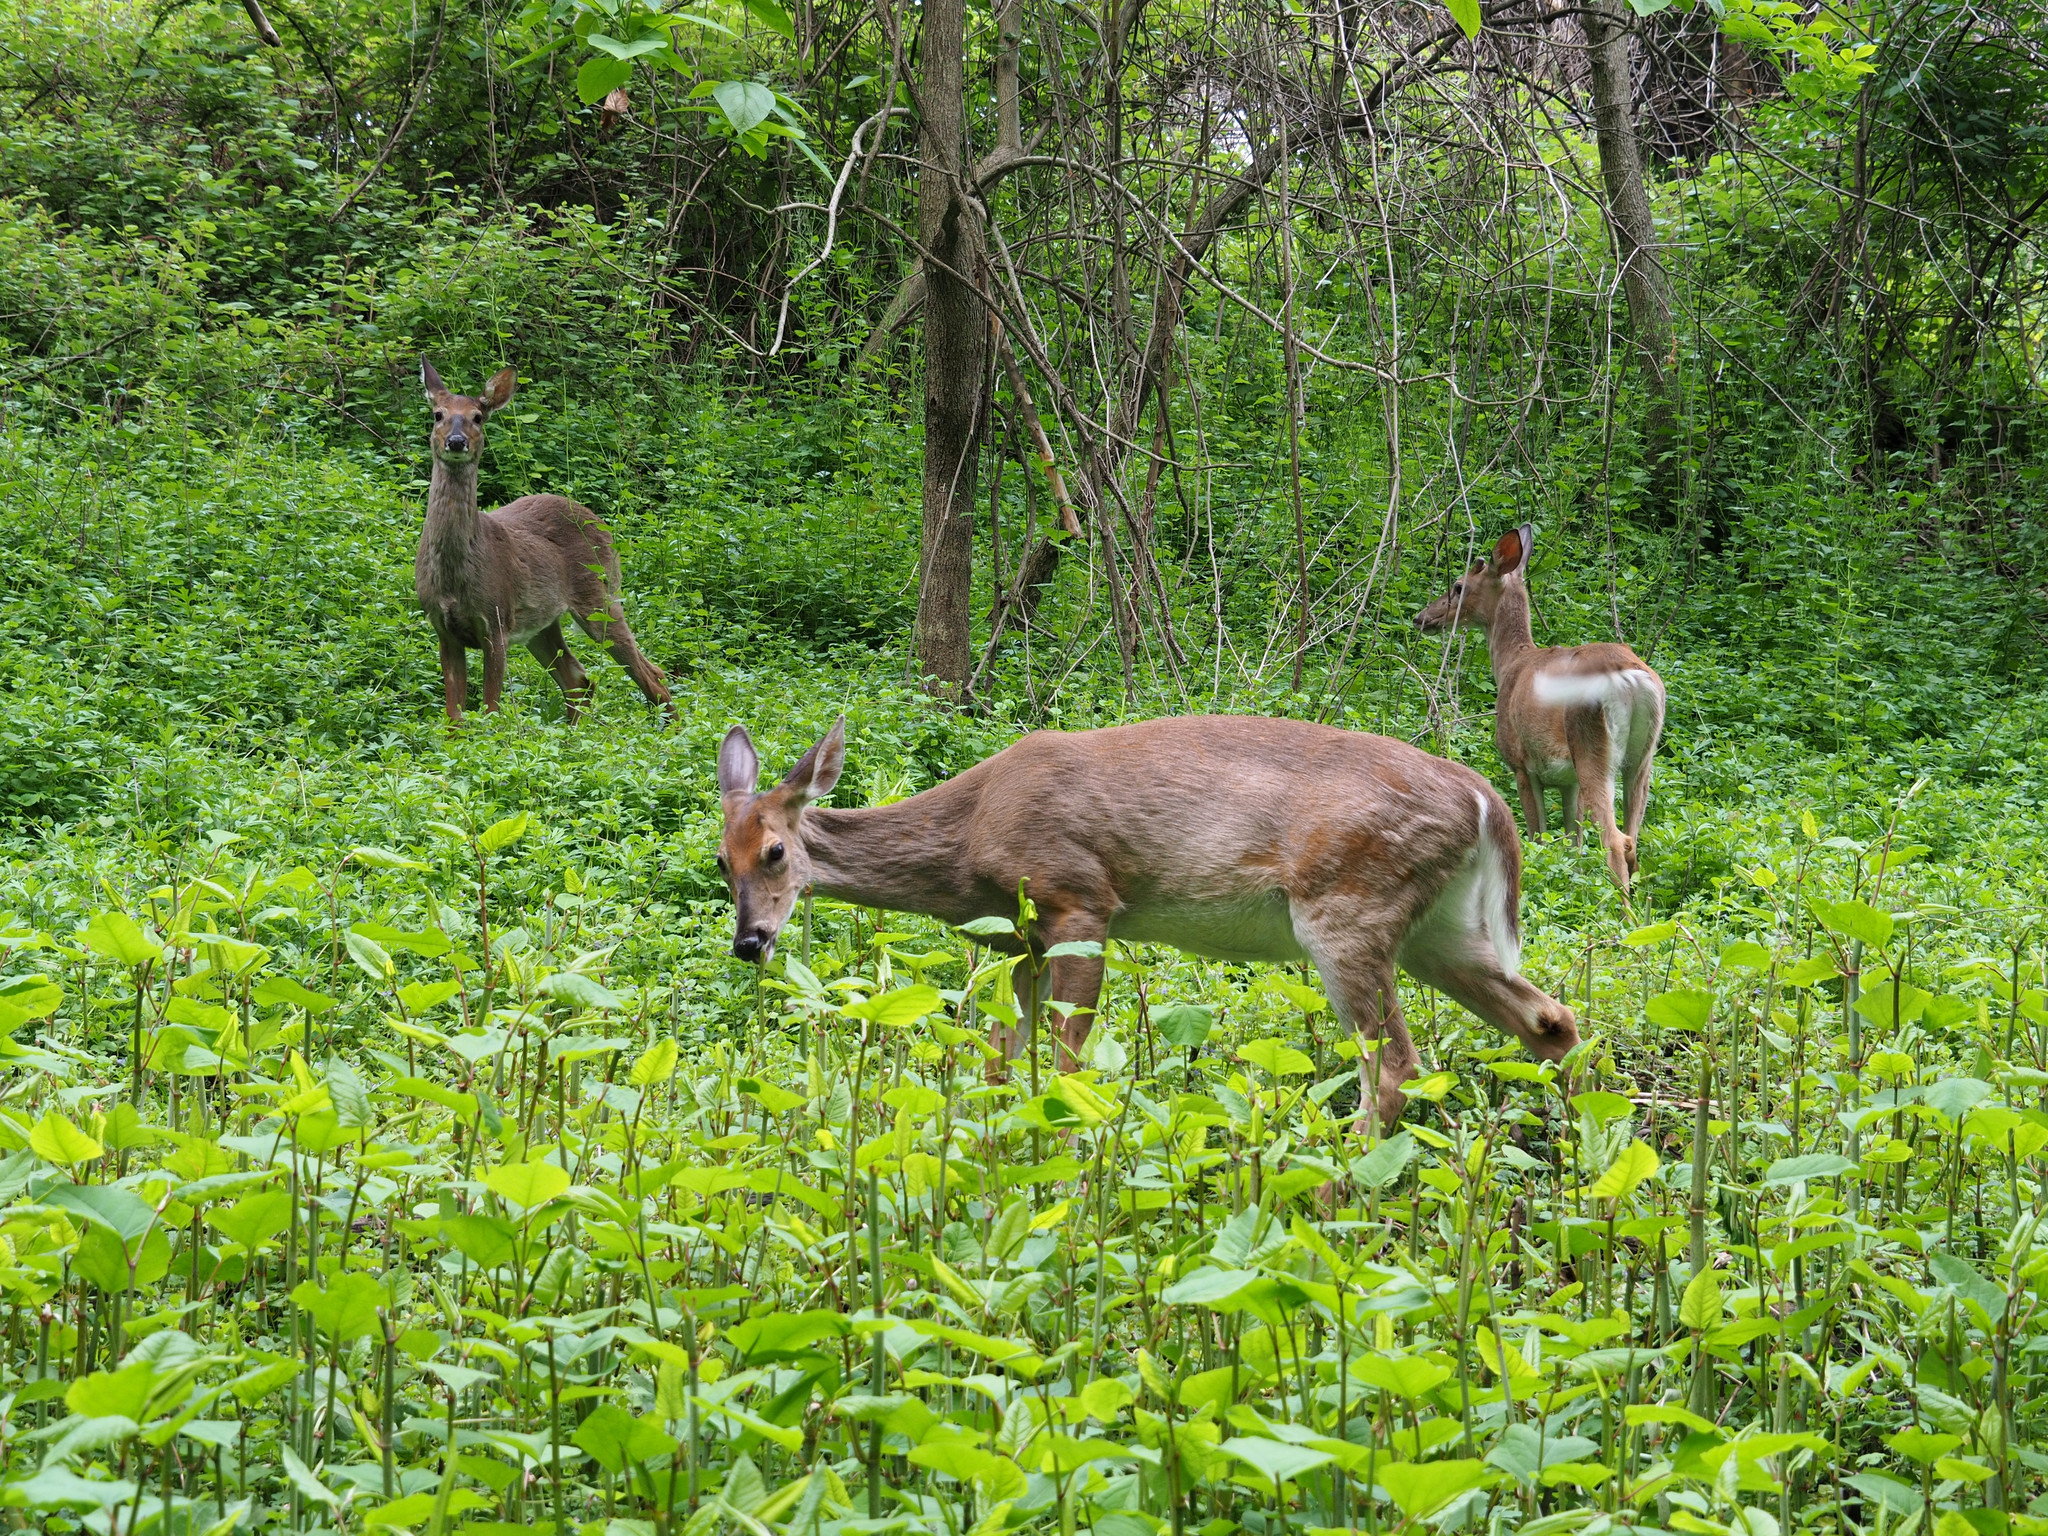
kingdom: Animalia
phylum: Chordata
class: Mammalia
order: Artiodactyla
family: Cervidae
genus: Odocoileus
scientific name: Odocoileus virginianus
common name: White-tailed deer
